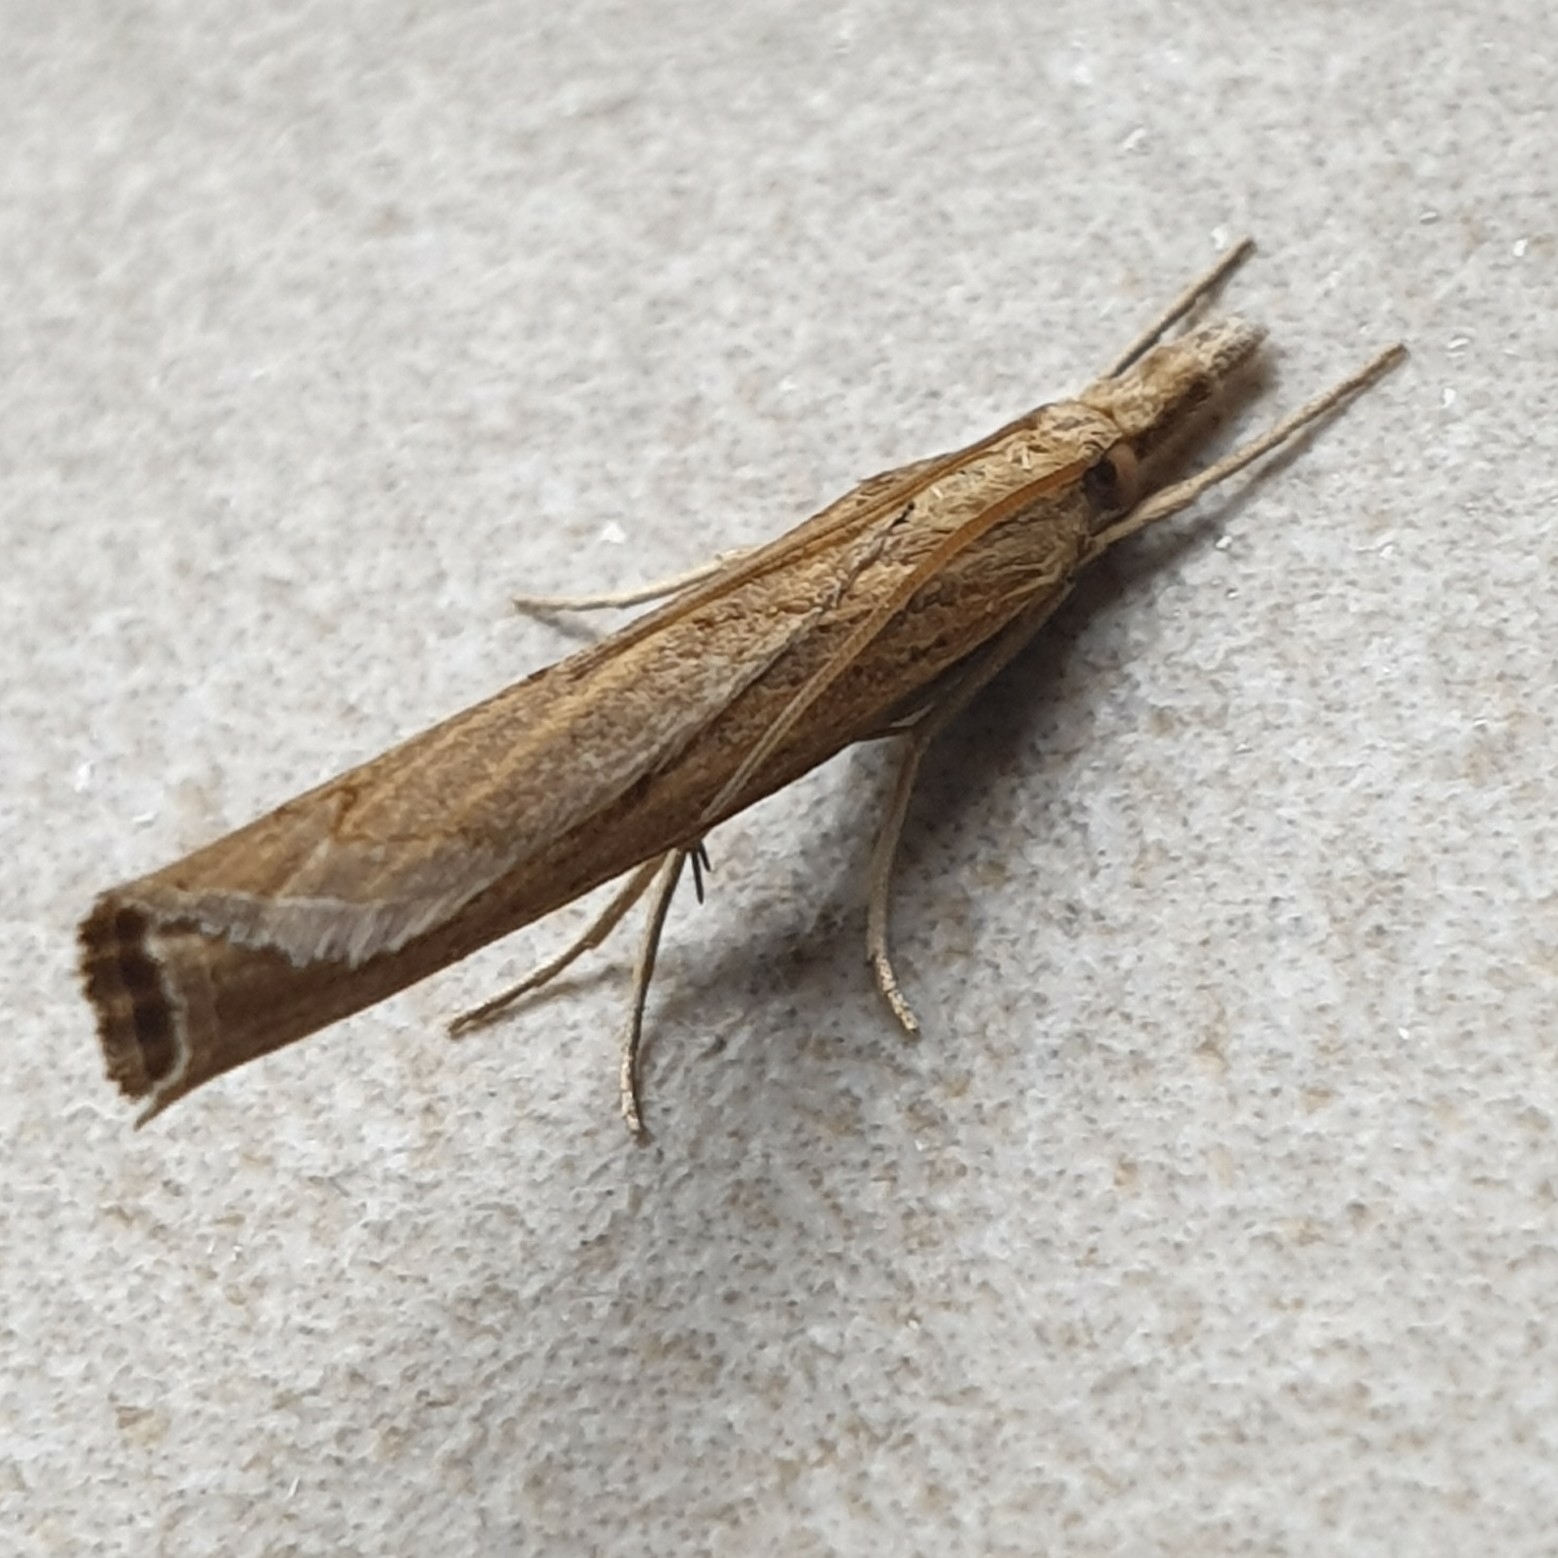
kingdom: Animalia
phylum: Arthropoda
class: Insecta
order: Lepidoptera
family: Crambidae
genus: Pediasia
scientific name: Pediasia contaminella
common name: Waste grass-veneer
